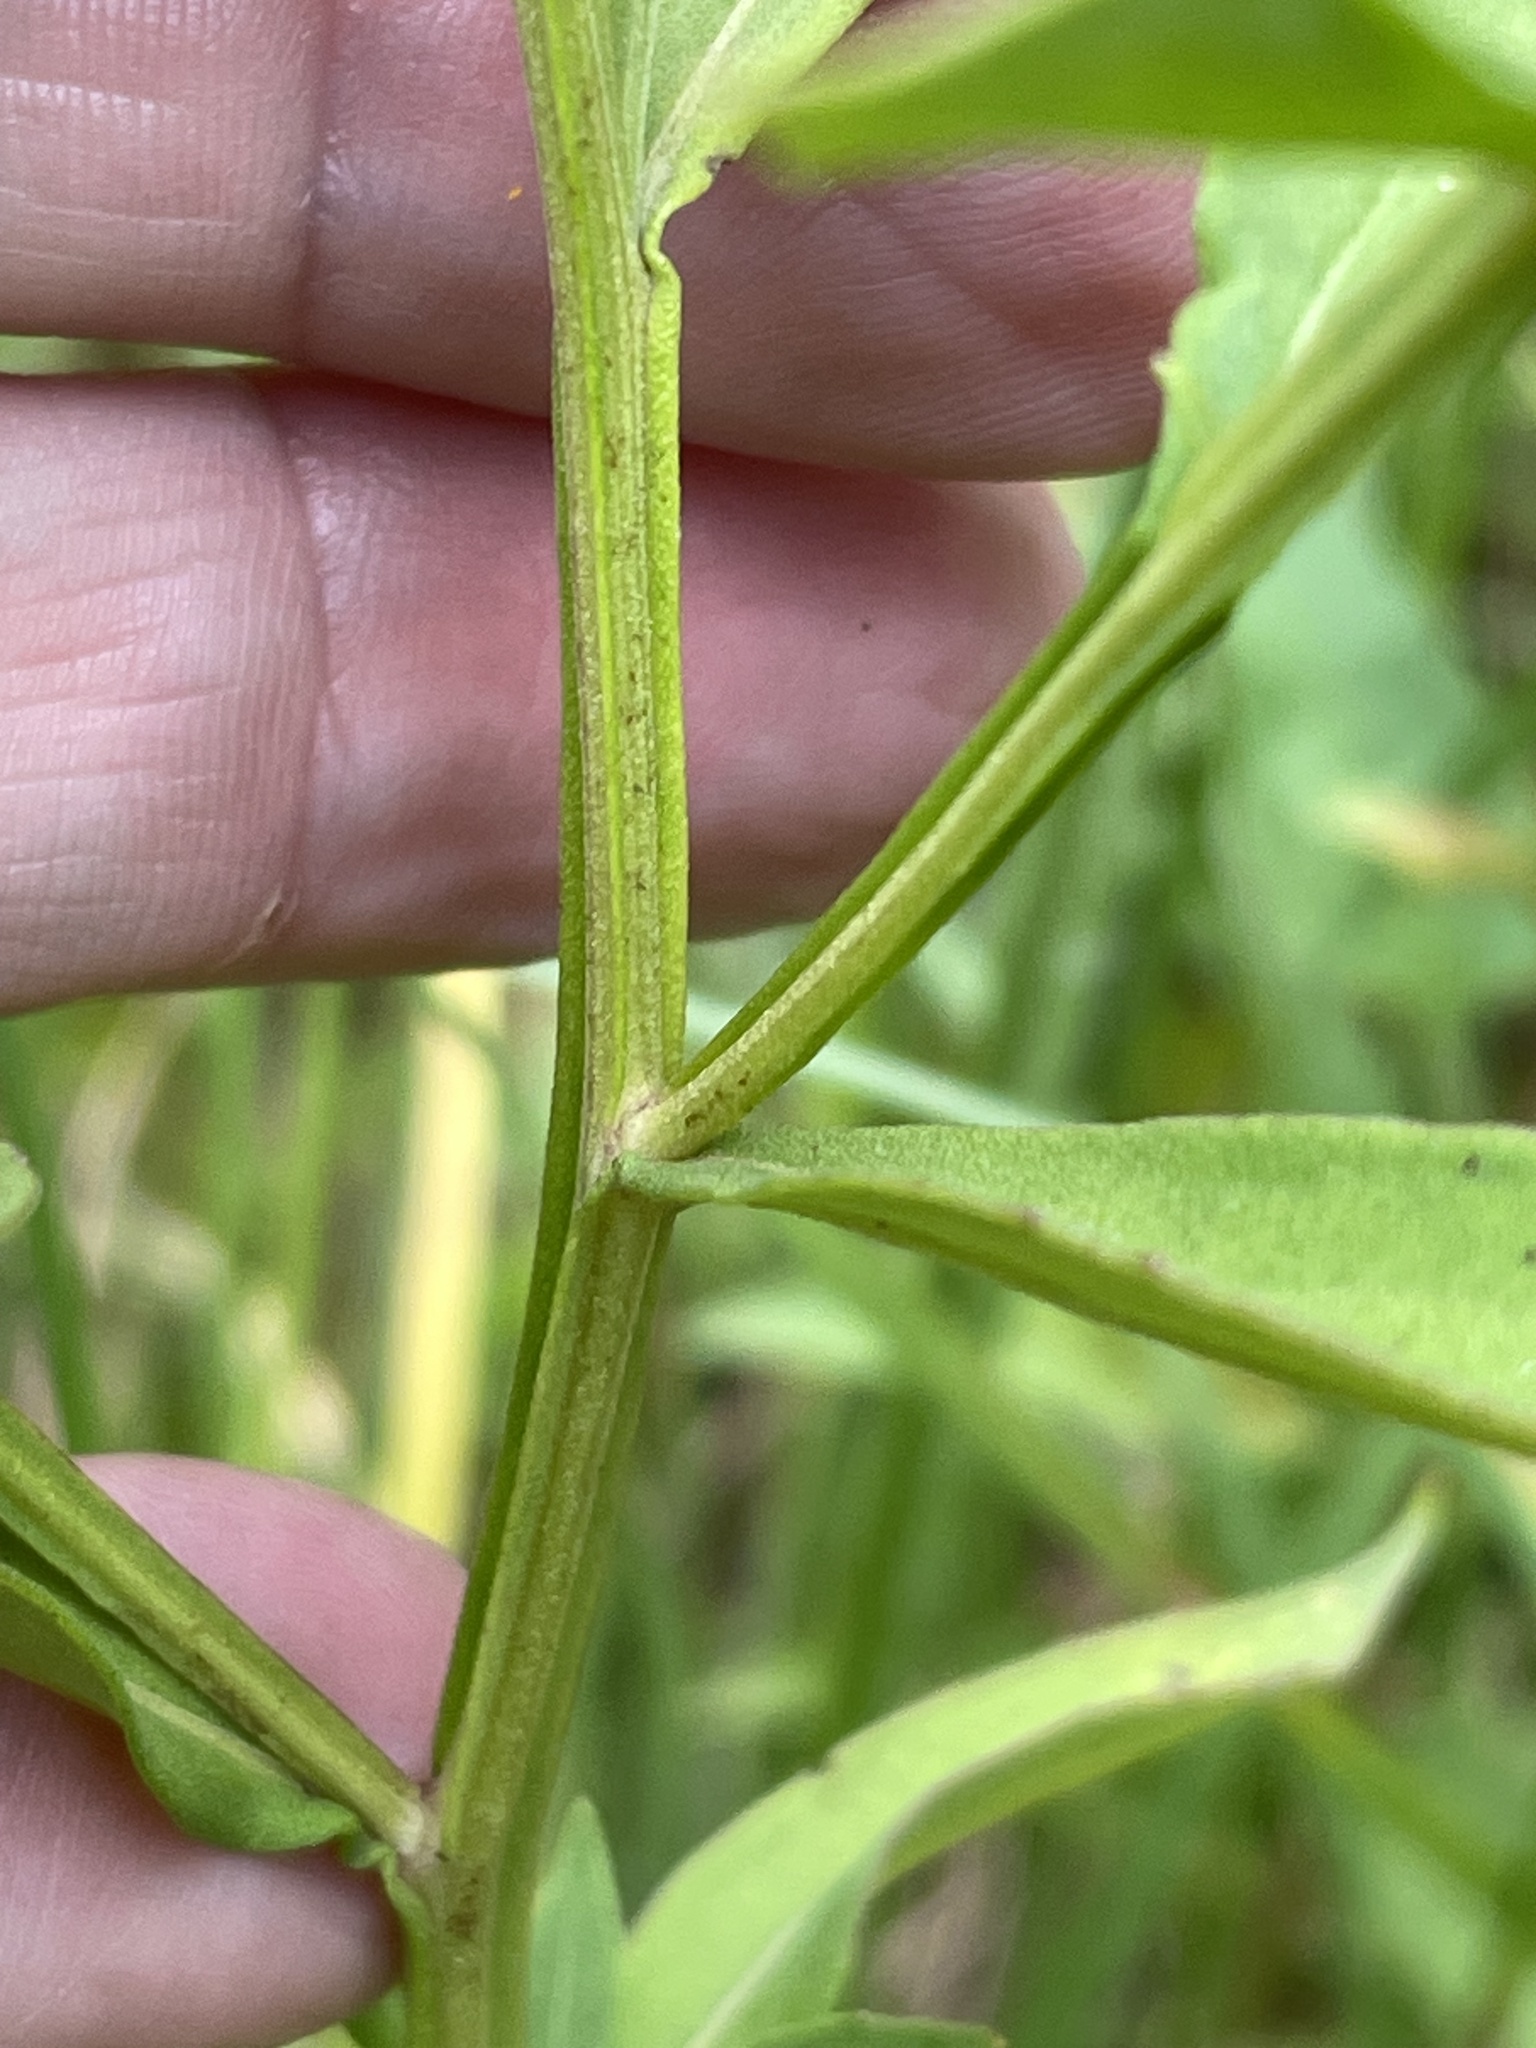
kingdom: Plantae
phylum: Tracheophyta
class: Magnoliopsida
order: Asterales
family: Asteraceae
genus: Helenium
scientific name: Helenium autumnale
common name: Sneezeweed
